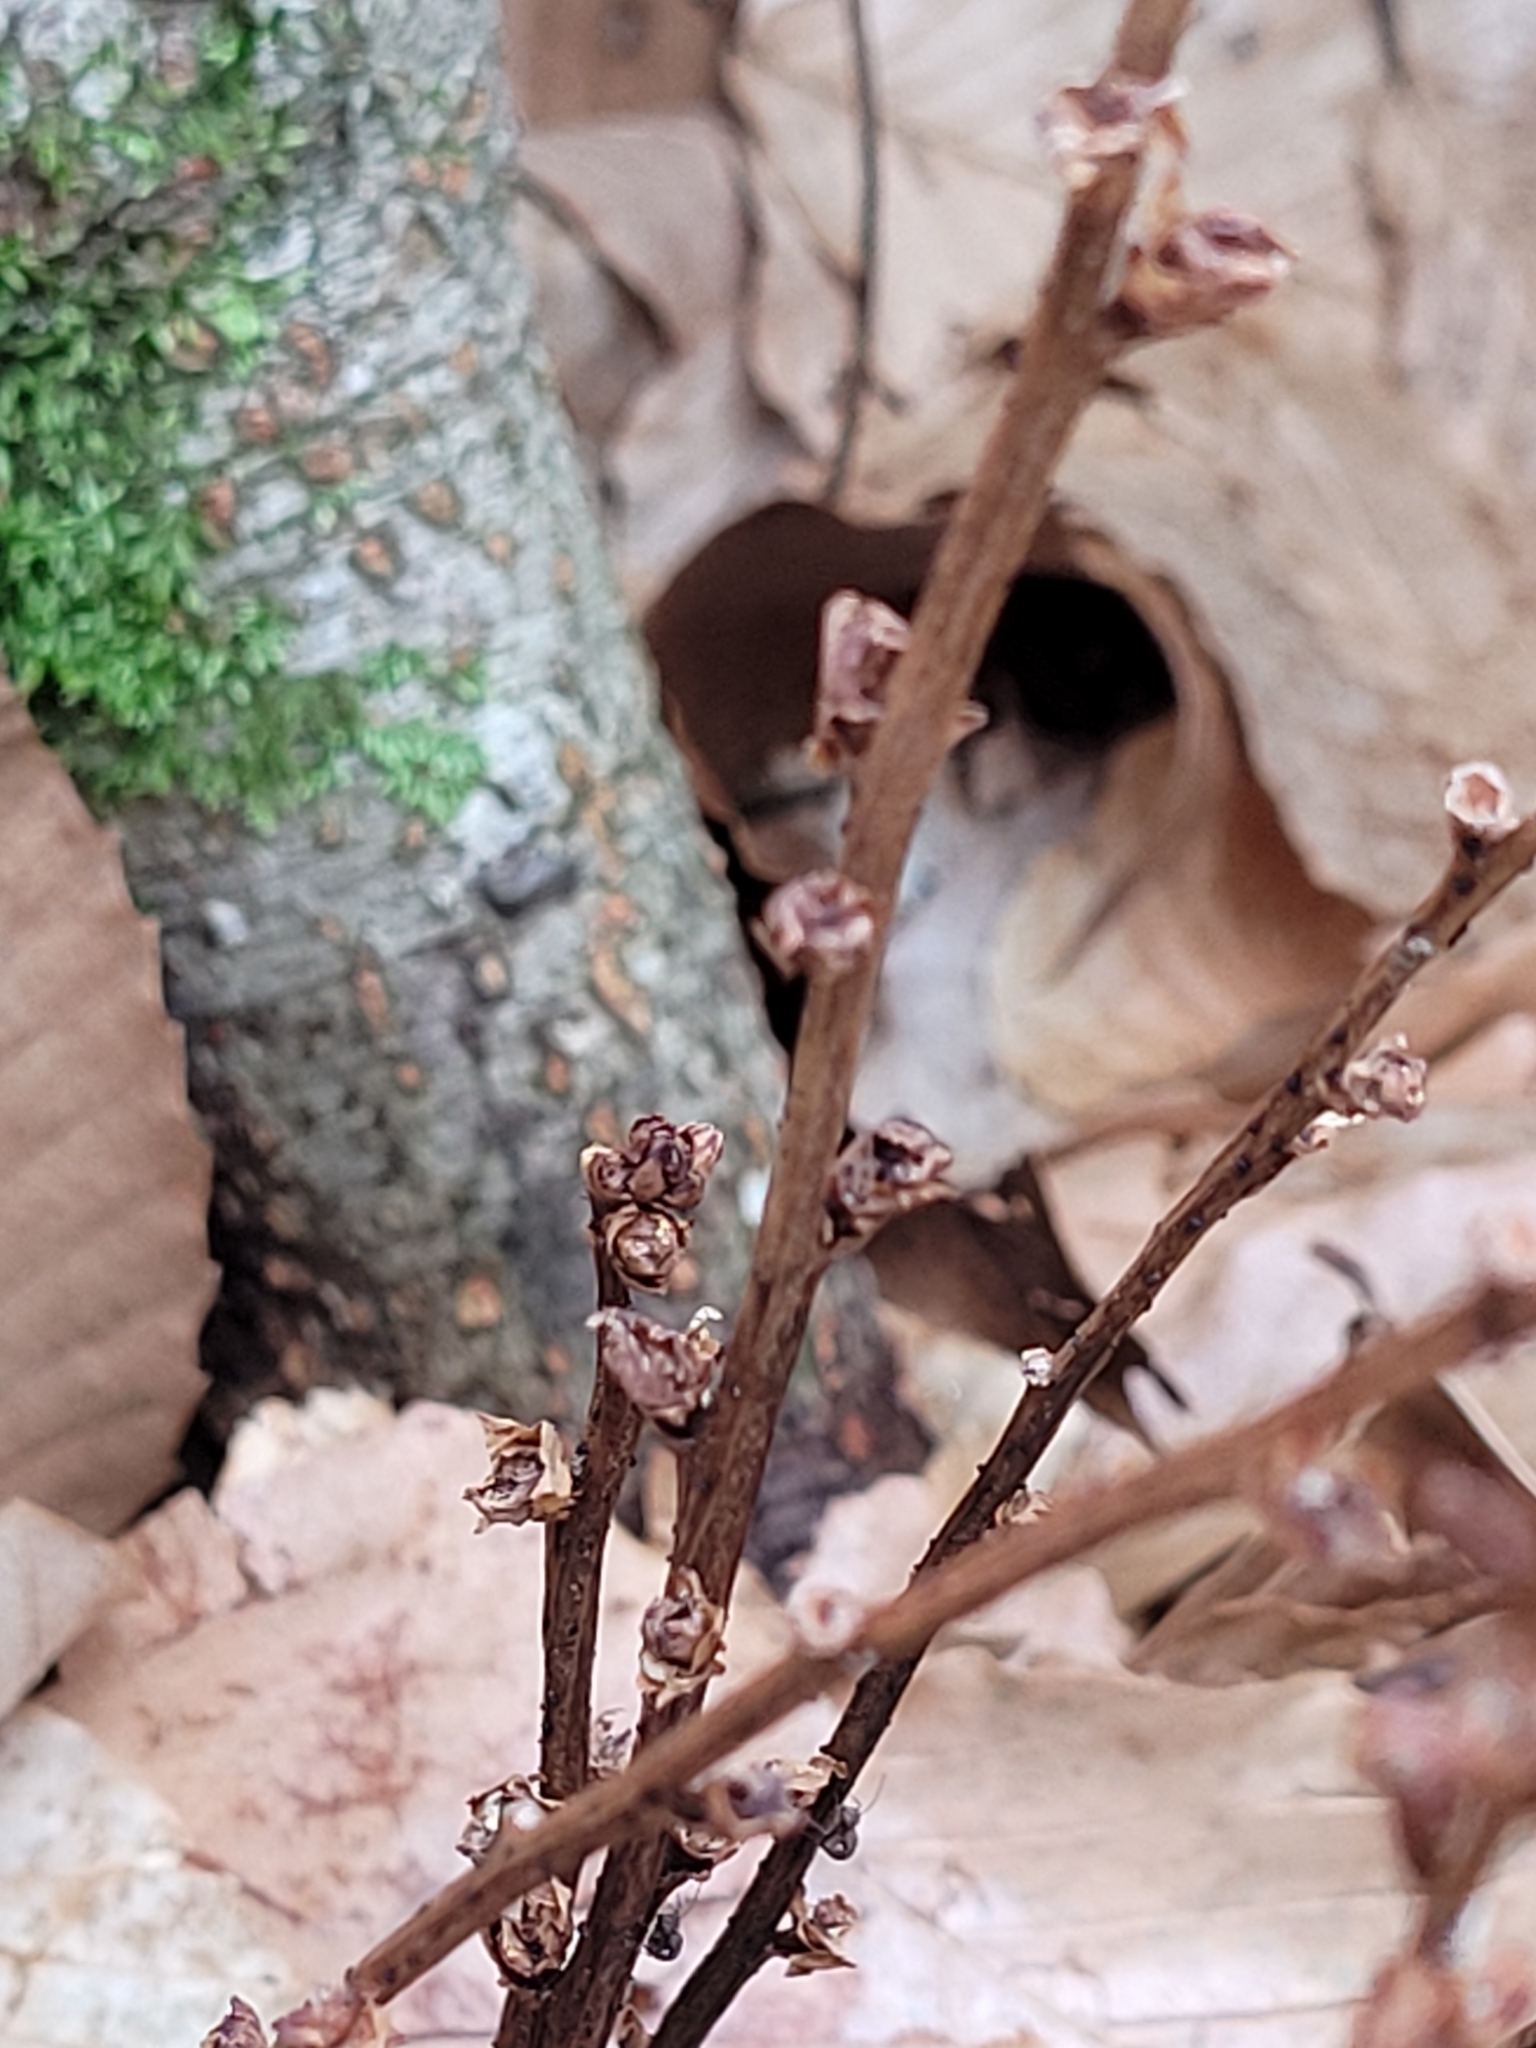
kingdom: Plantae
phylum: Tracheophyta
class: Magnoliopsida
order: Lamiales
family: Orobanchaceae
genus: Epifagus
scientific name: Epifagus virginiana
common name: Beechdrops
